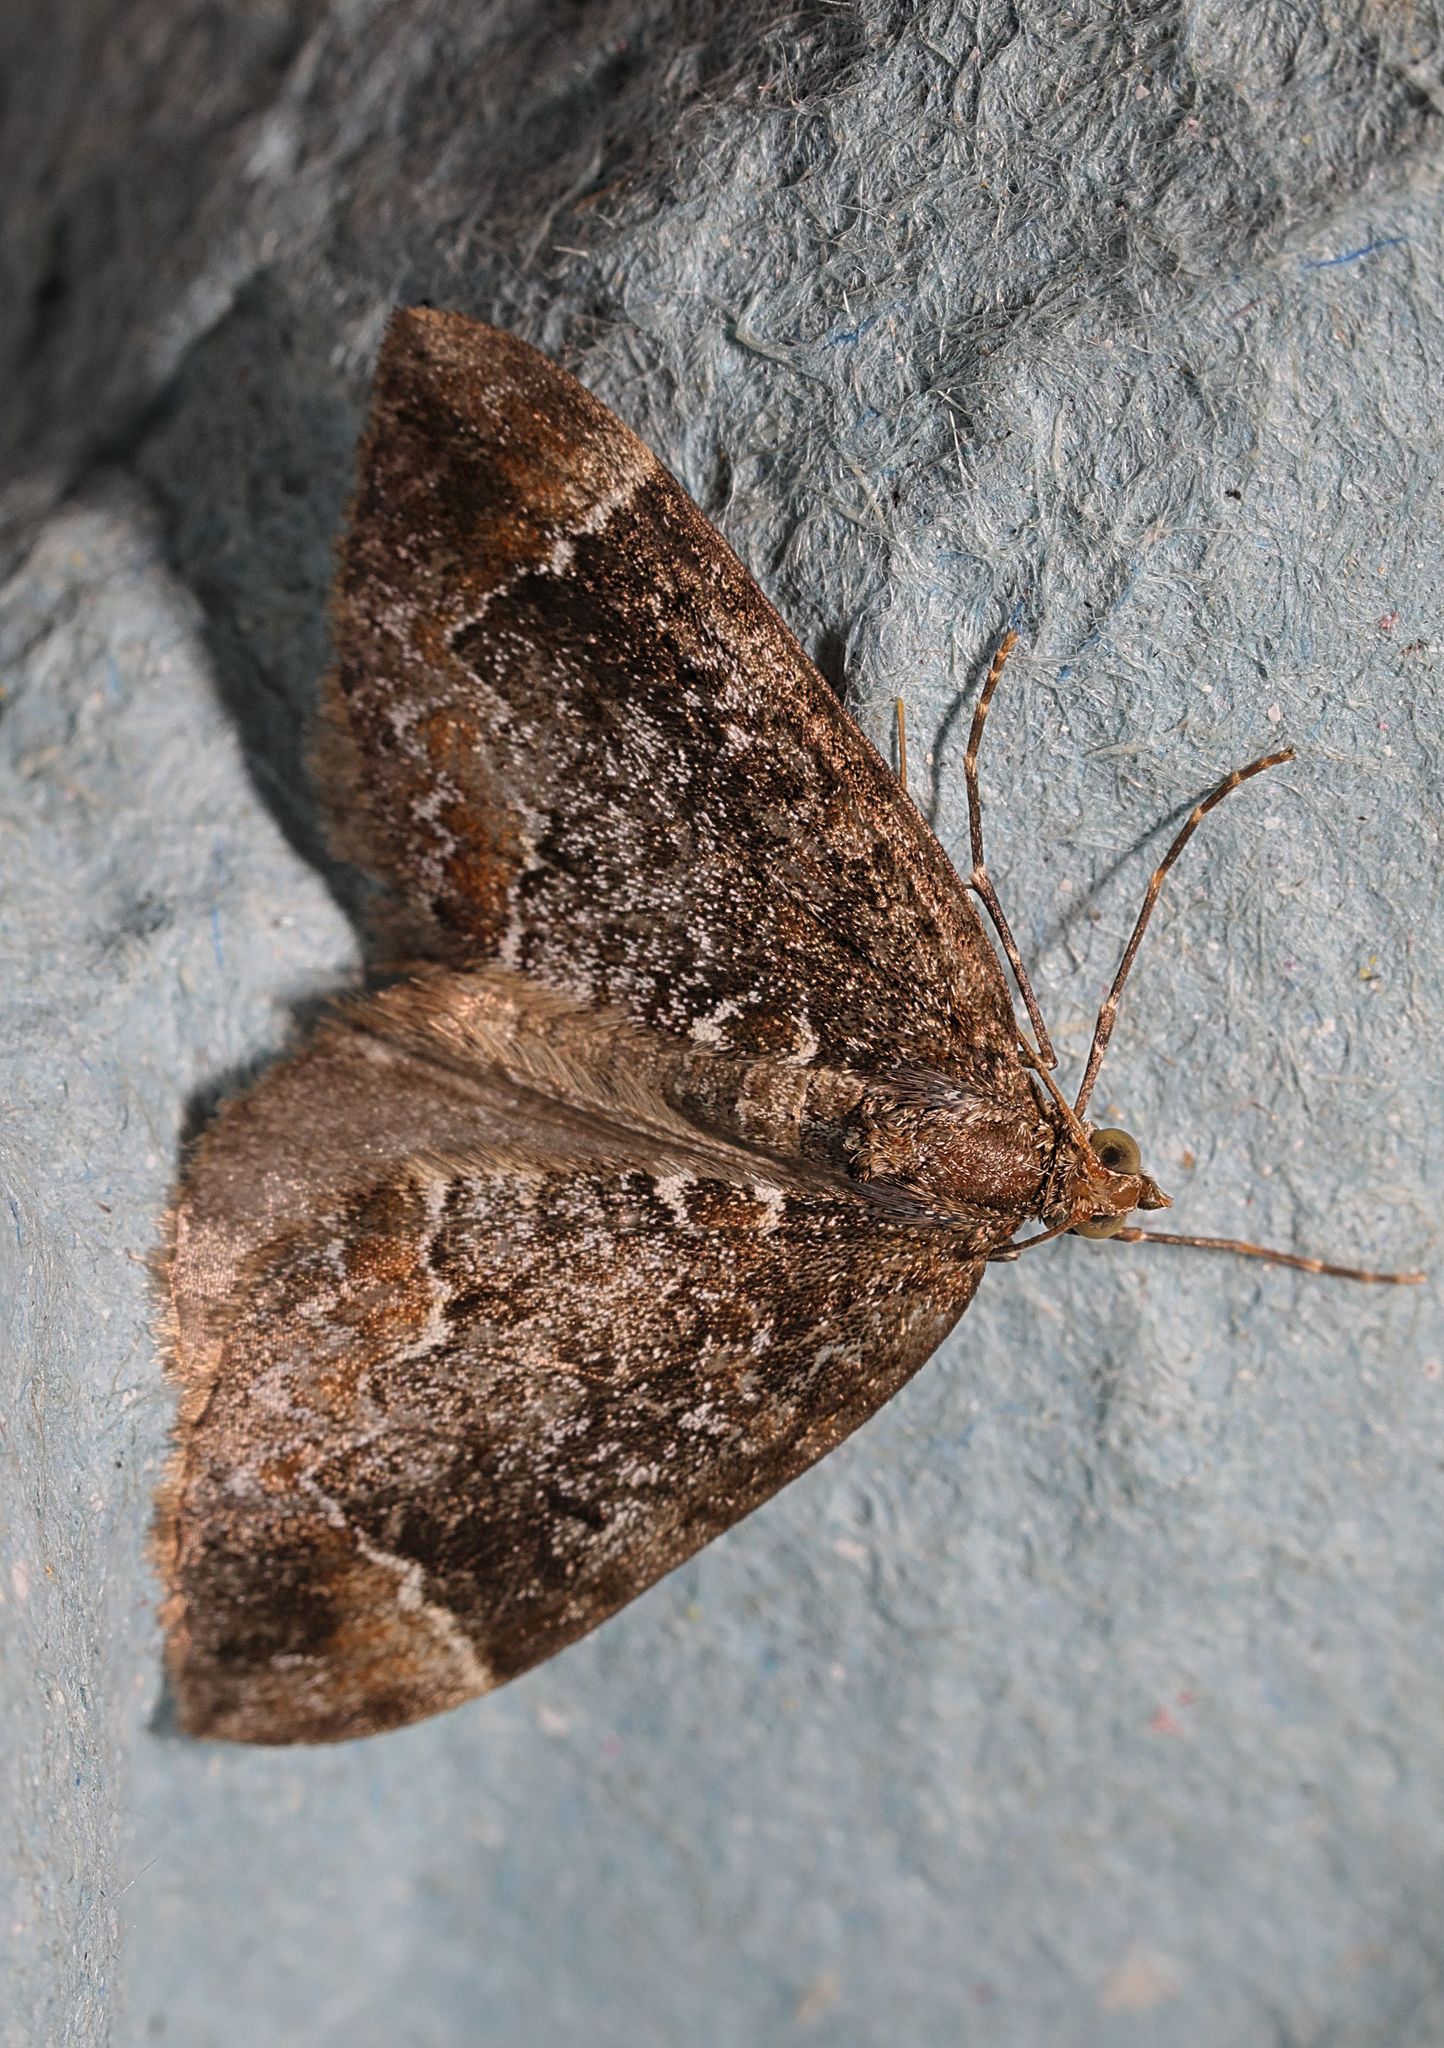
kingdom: Animalia
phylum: Arthropoda
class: Insecta
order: Lepidoptera
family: Geometridae
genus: Dysstroma
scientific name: Dysstroma truncata
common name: Common marbled carpet
